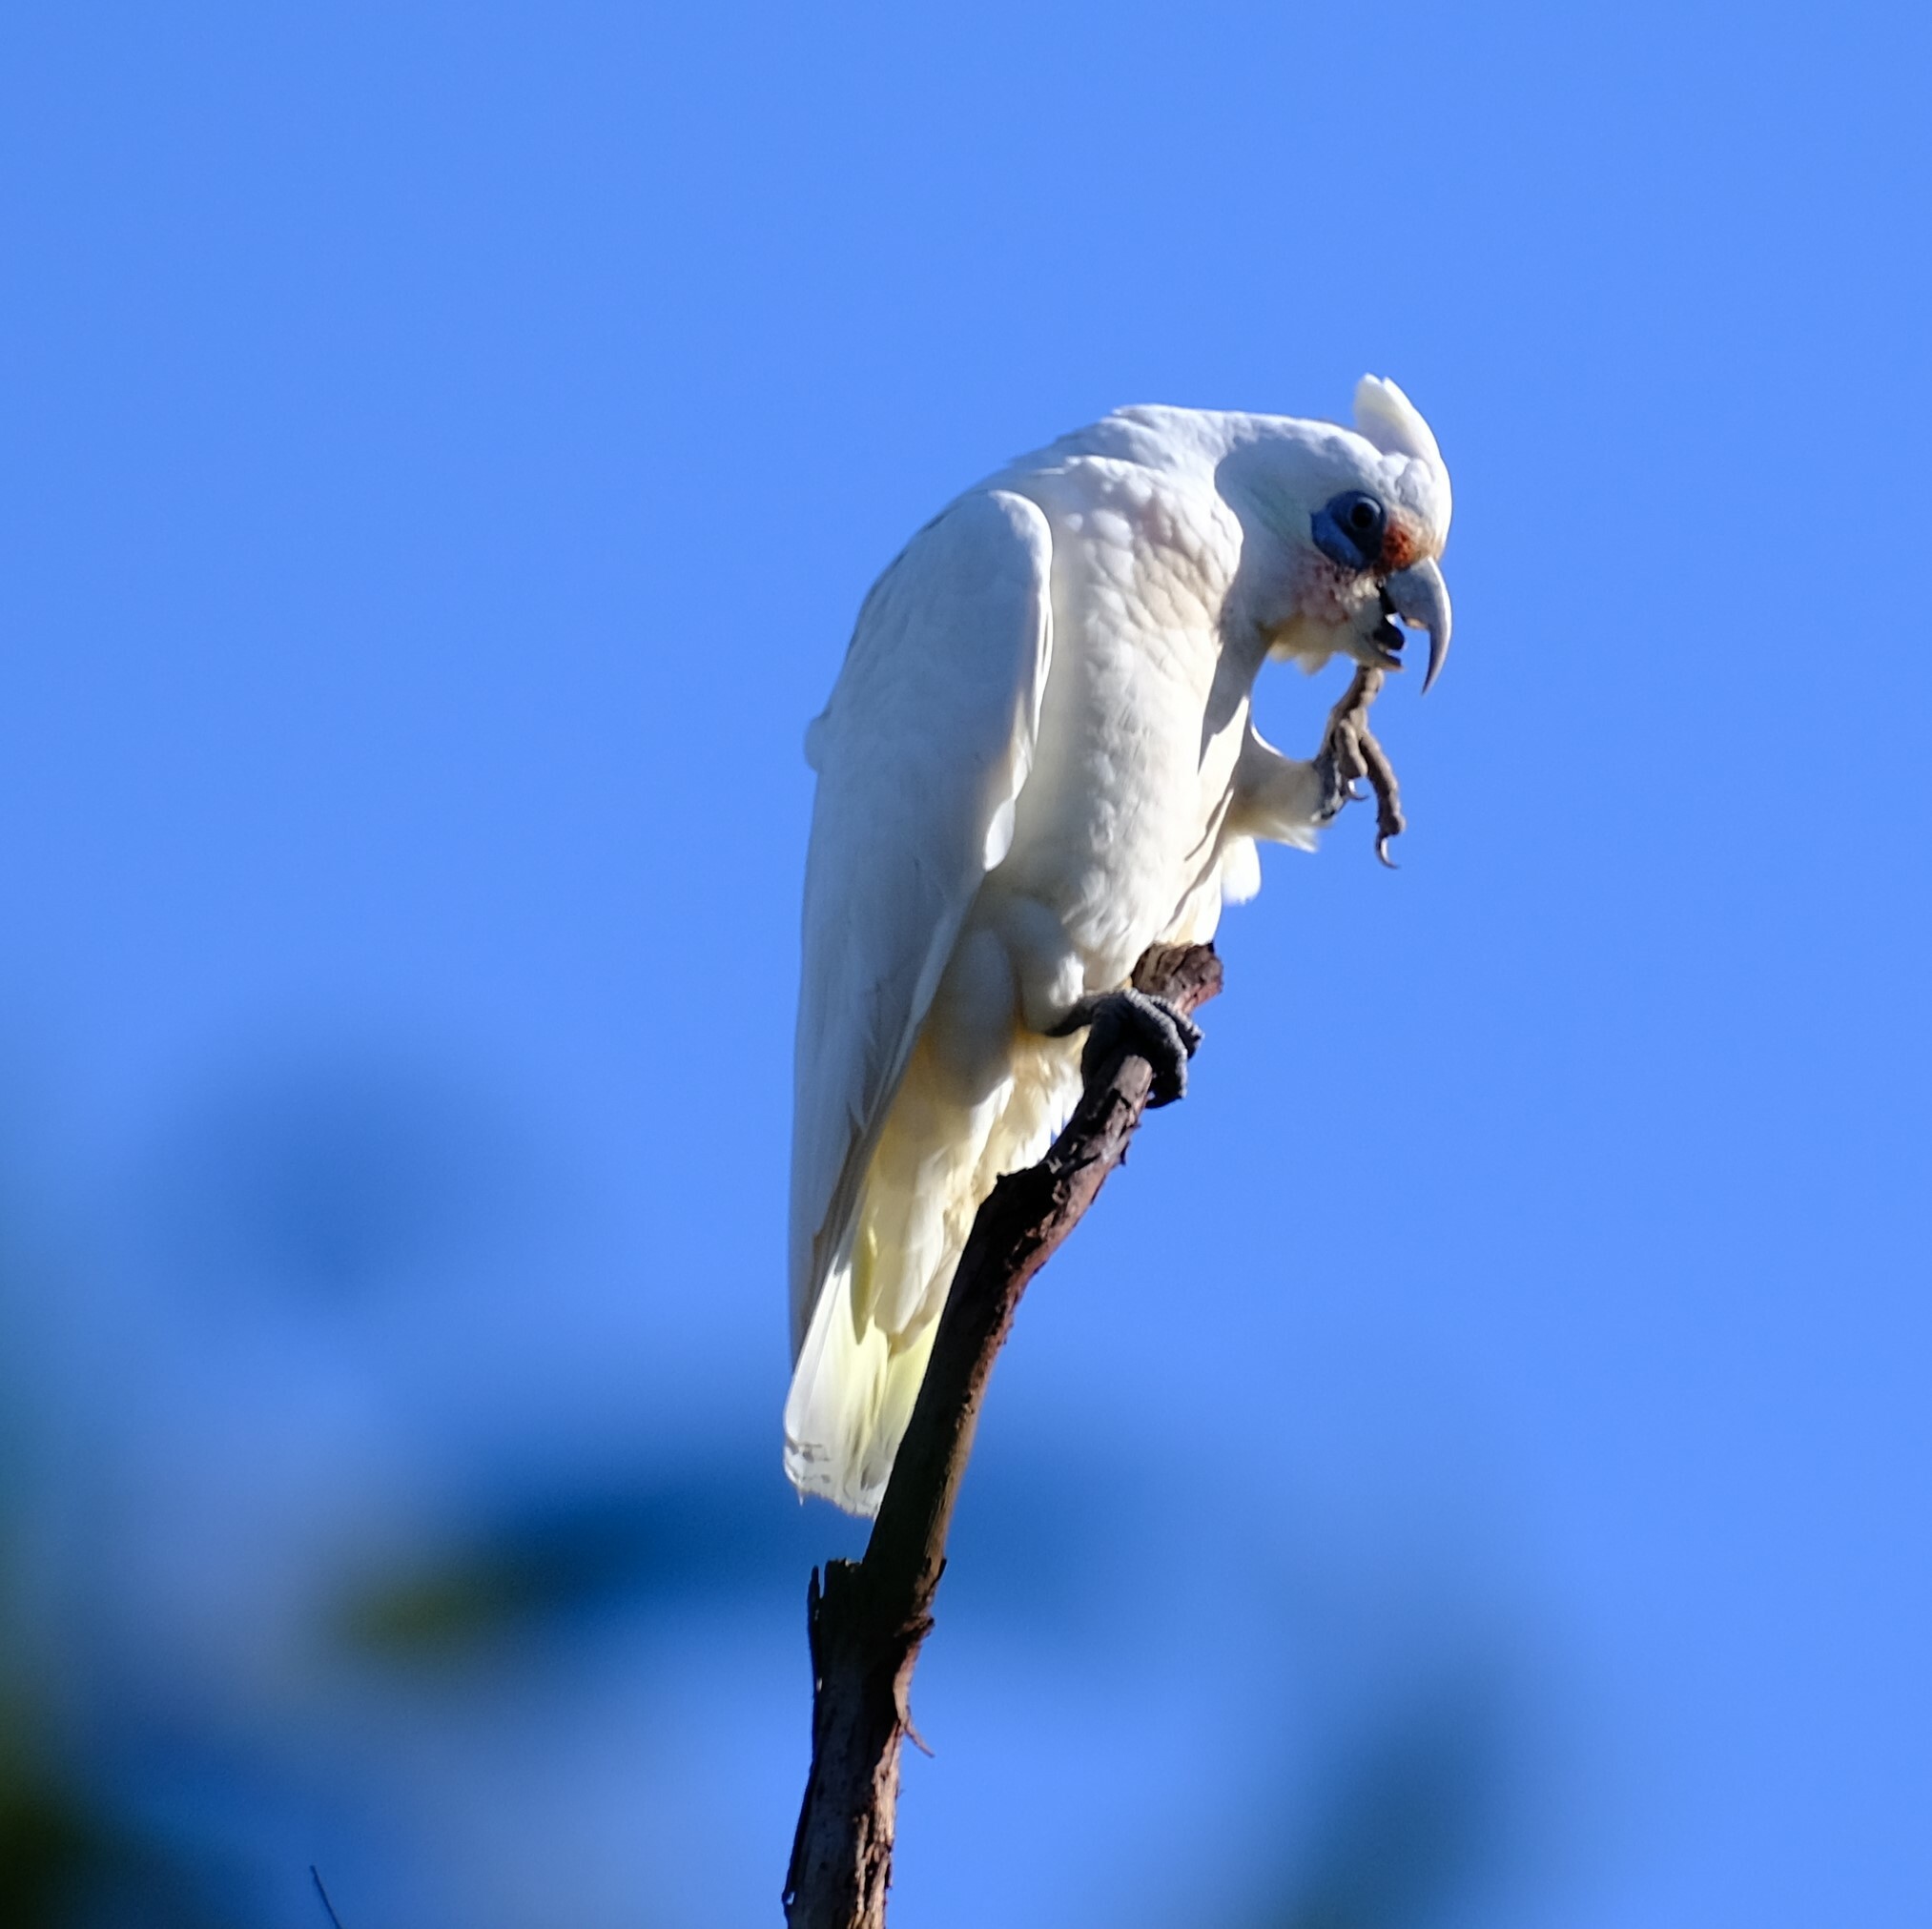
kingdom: Animalia
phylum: Chordata
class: Aves
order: Psittaciformes
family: Psittacidae
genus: Cacatua
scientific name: Cacatua pastinator
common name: Western corella
